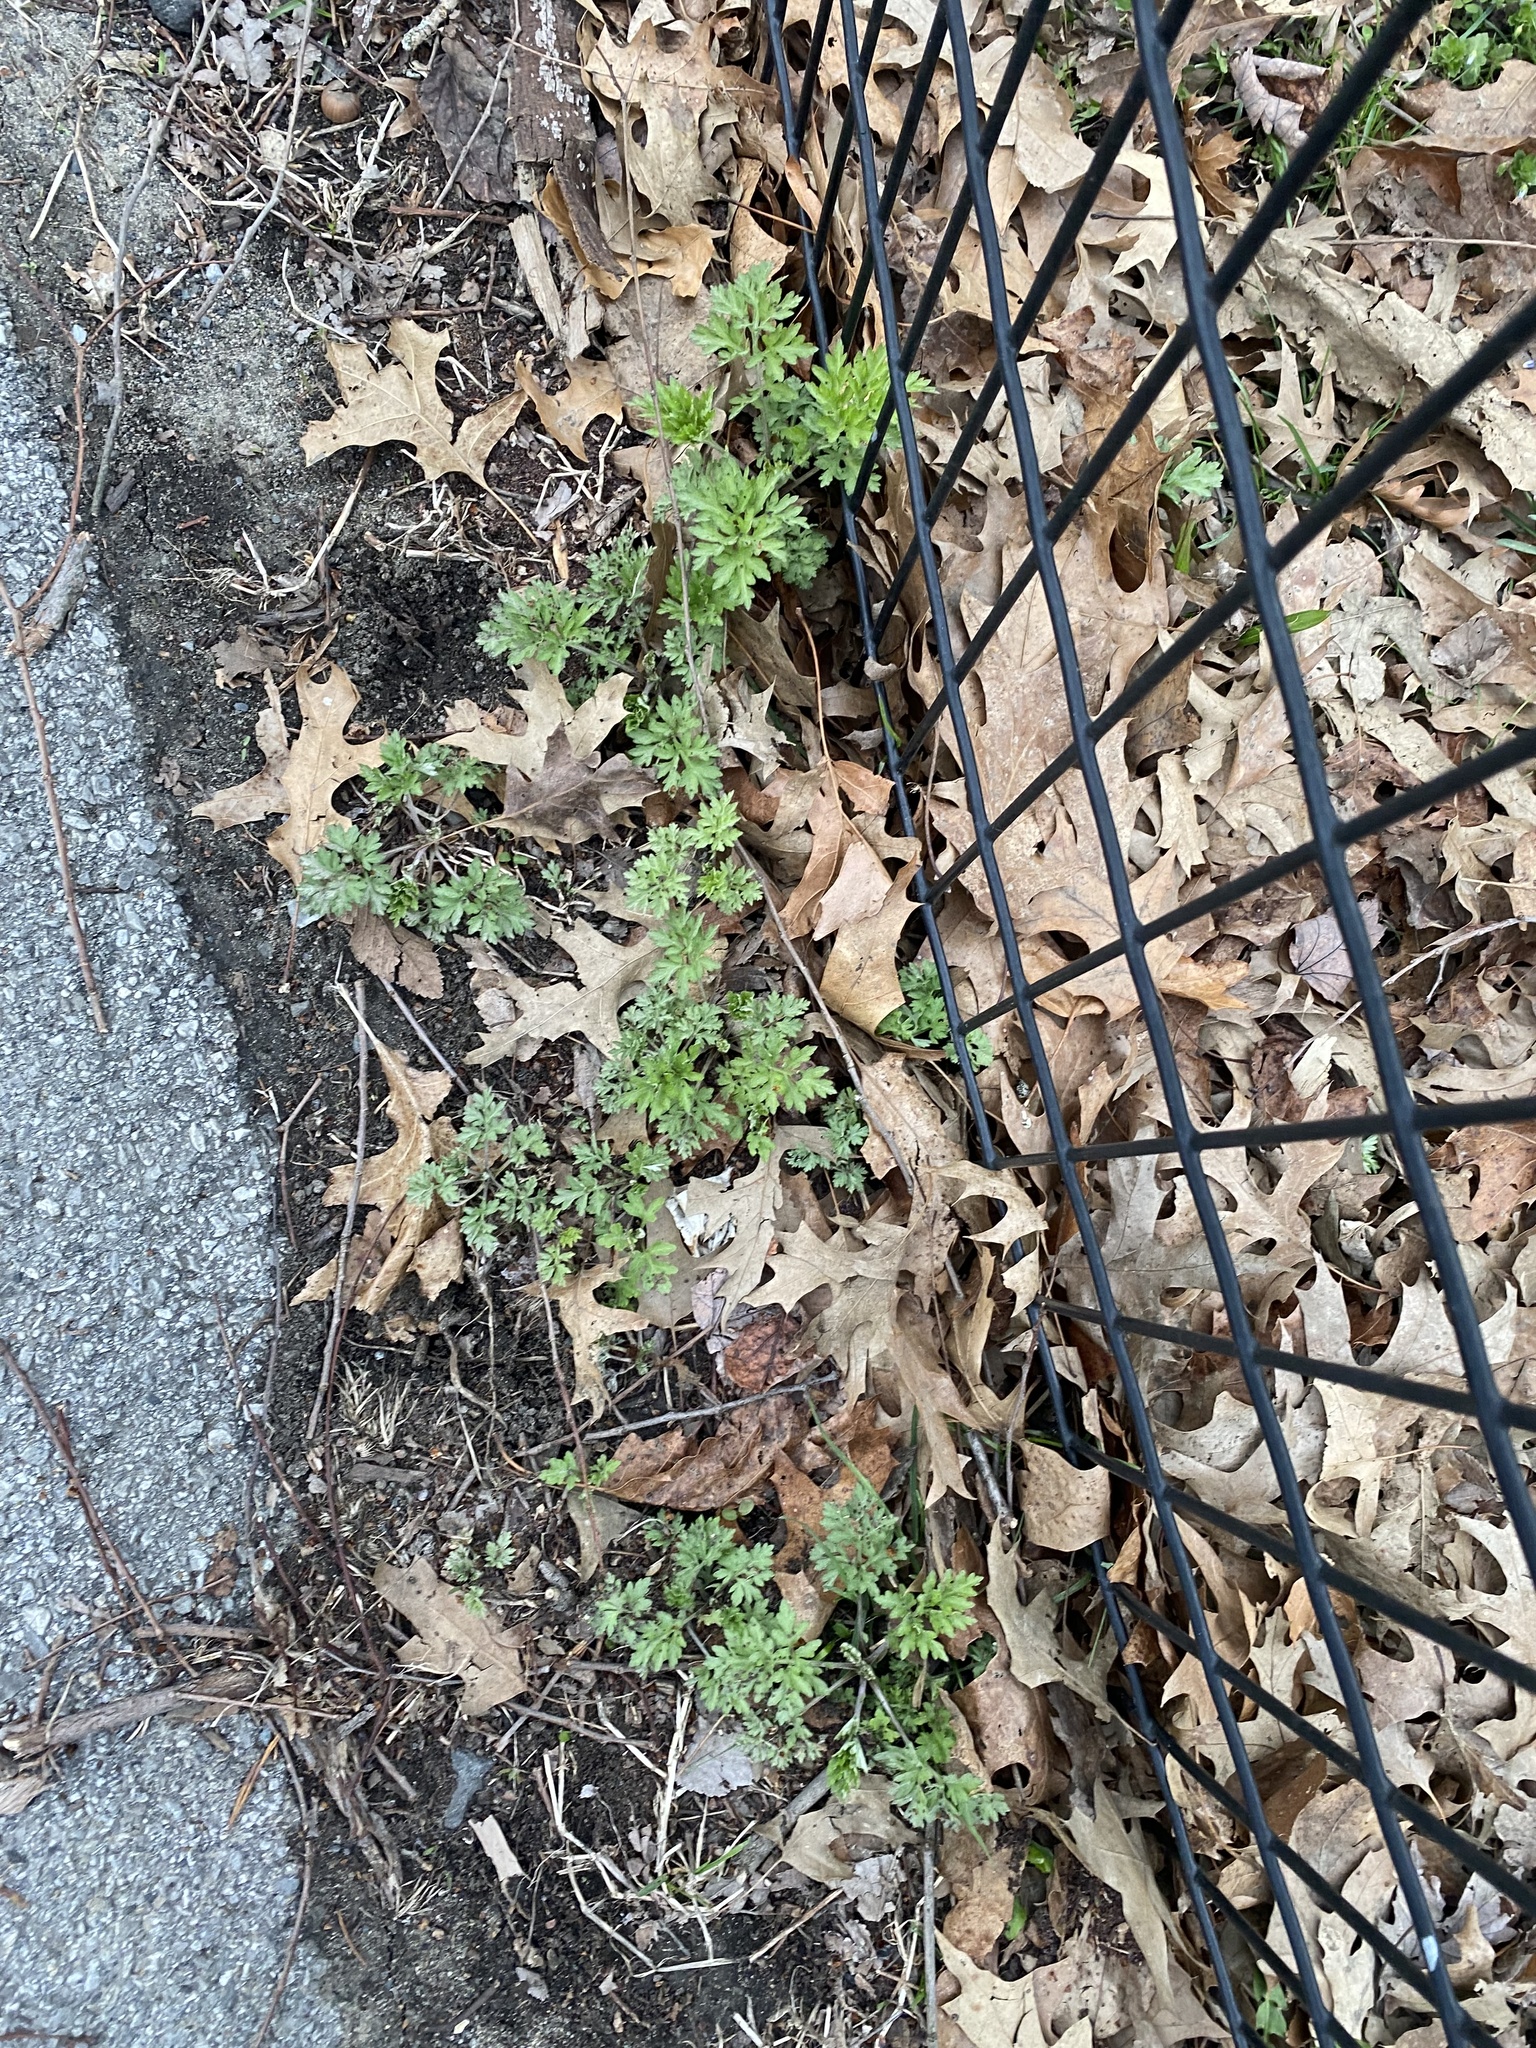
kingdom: Plantae
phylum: Tracheophyta
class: Magnoliopsida
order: Asterales
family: Asteraceae
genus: Artemisia
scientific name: Artemisia vulgaris
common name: Mugwort
